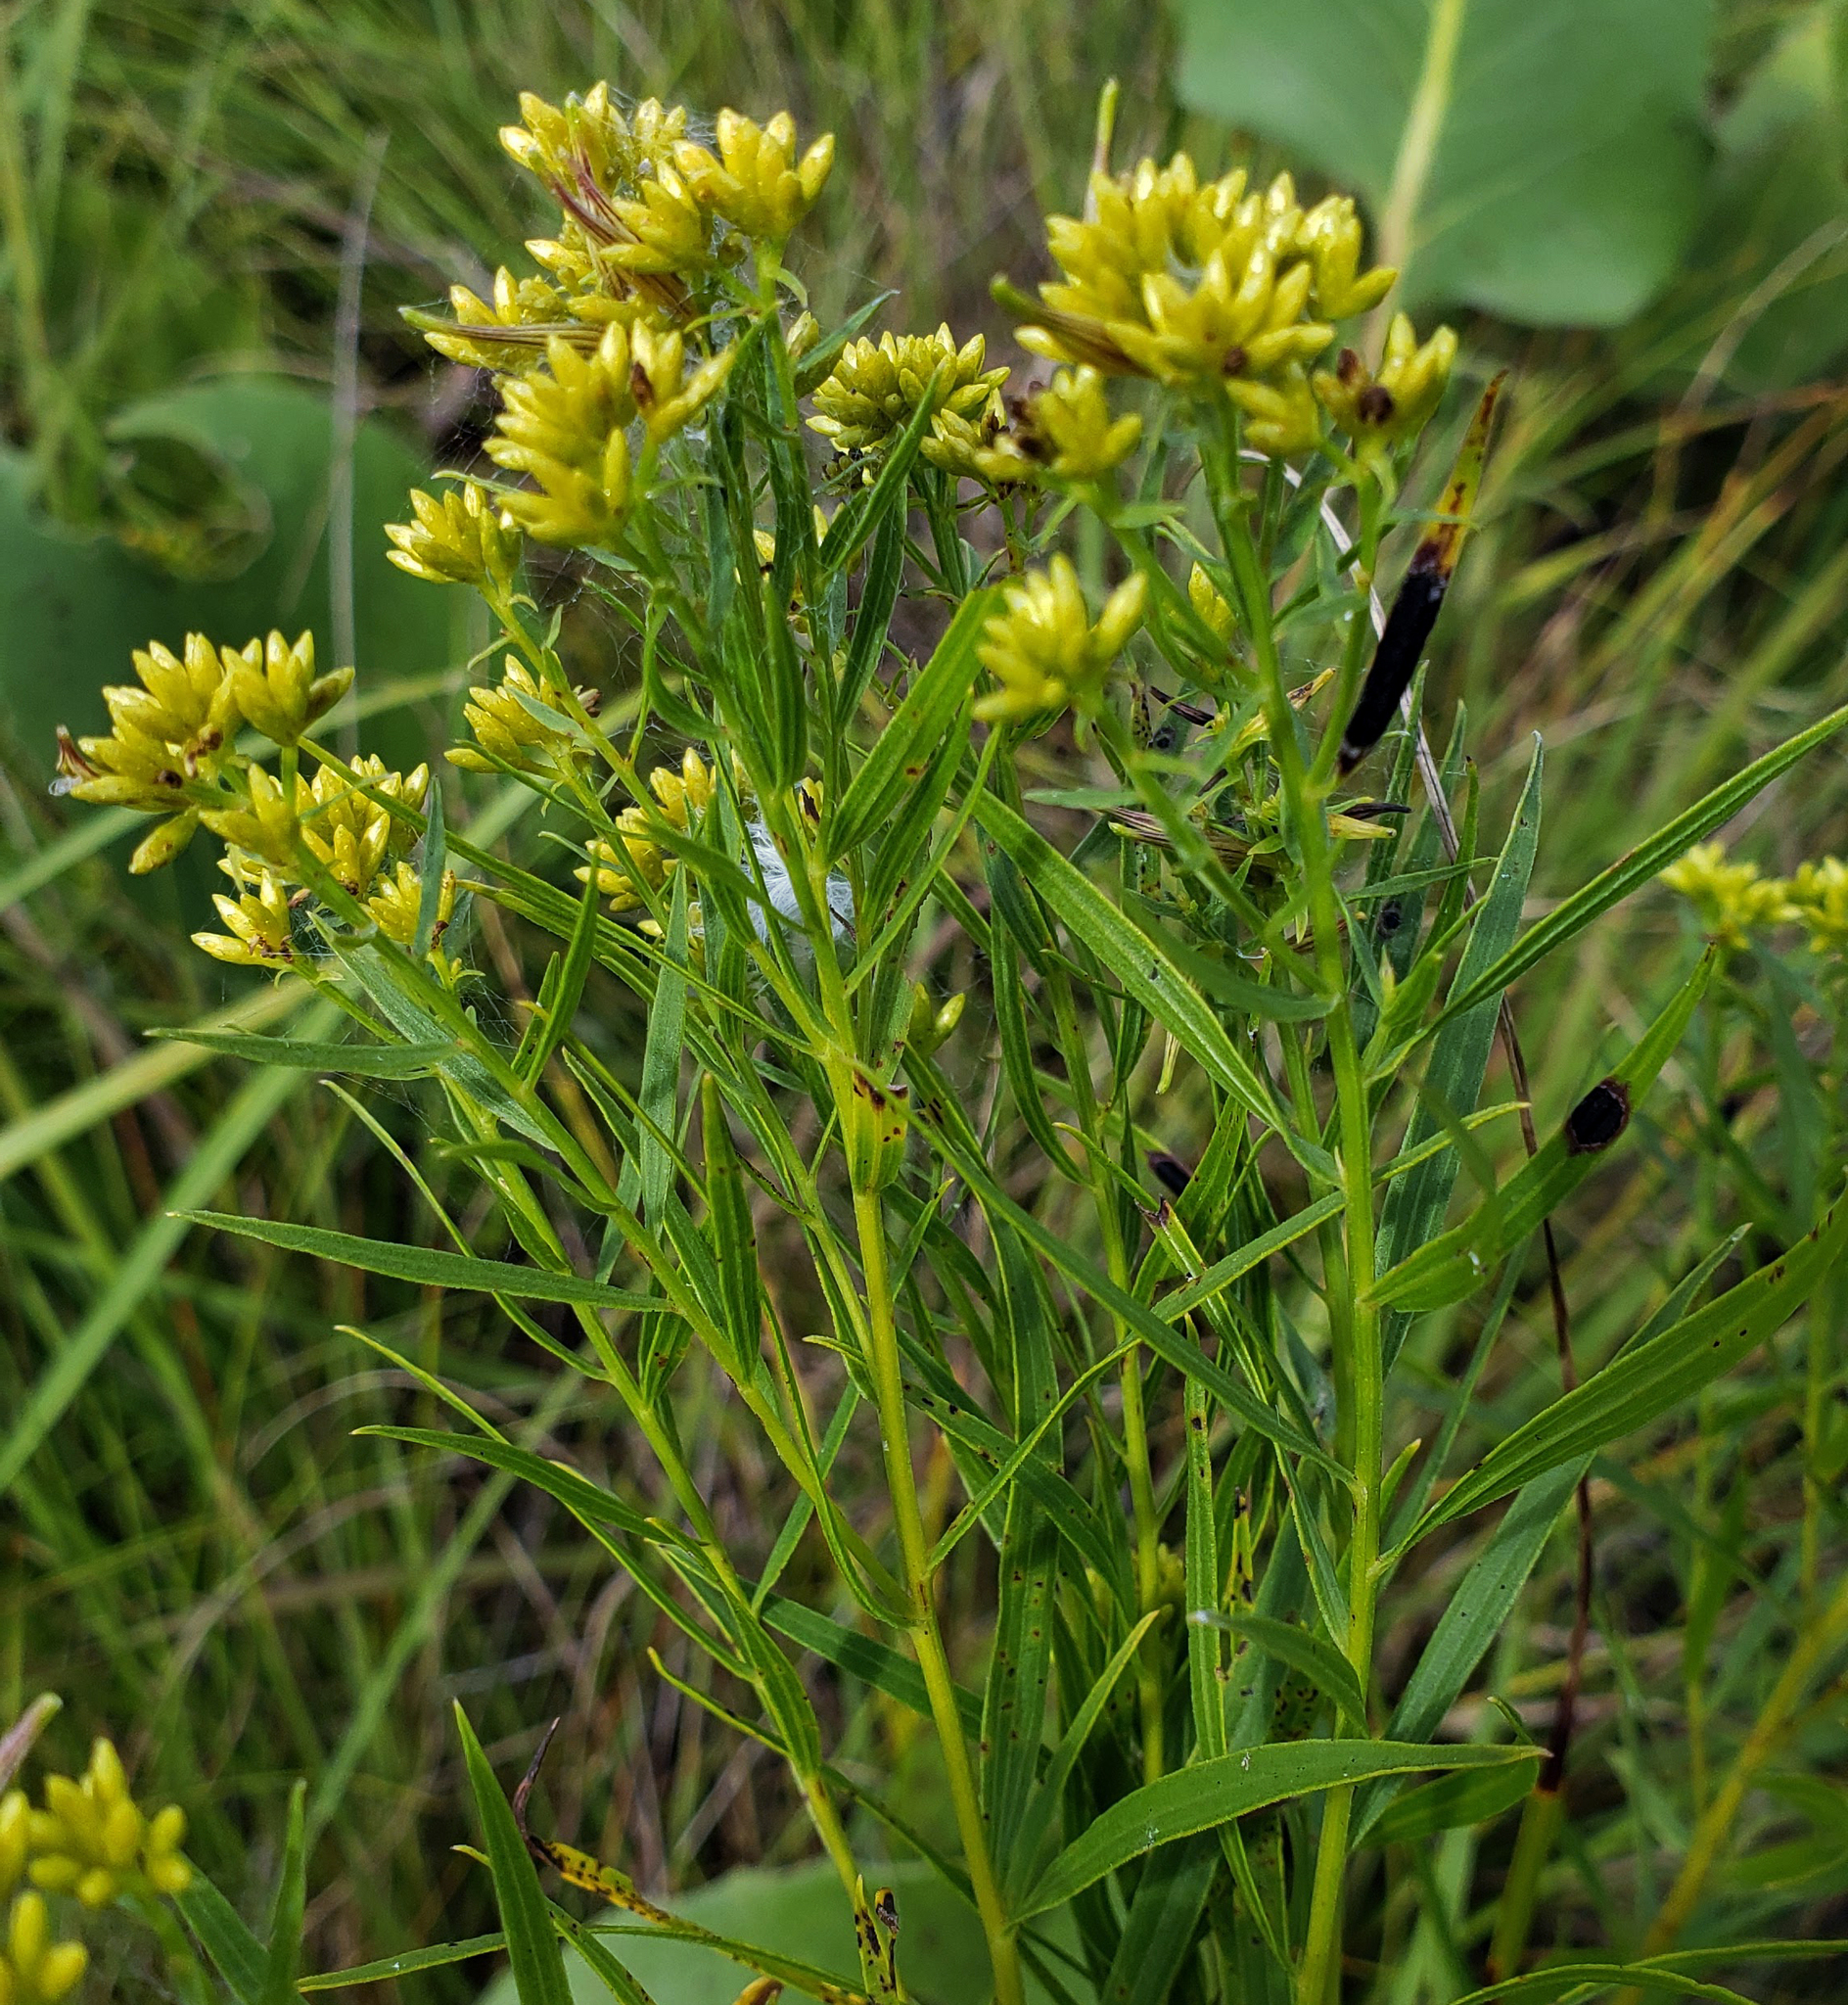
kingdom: Plantae
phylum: Tracheophyta
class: Magnoliopsida
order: Asterales
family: Asteraceae
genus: Euthamia
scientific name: Euthamia graminifolia
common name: Common goldentop
